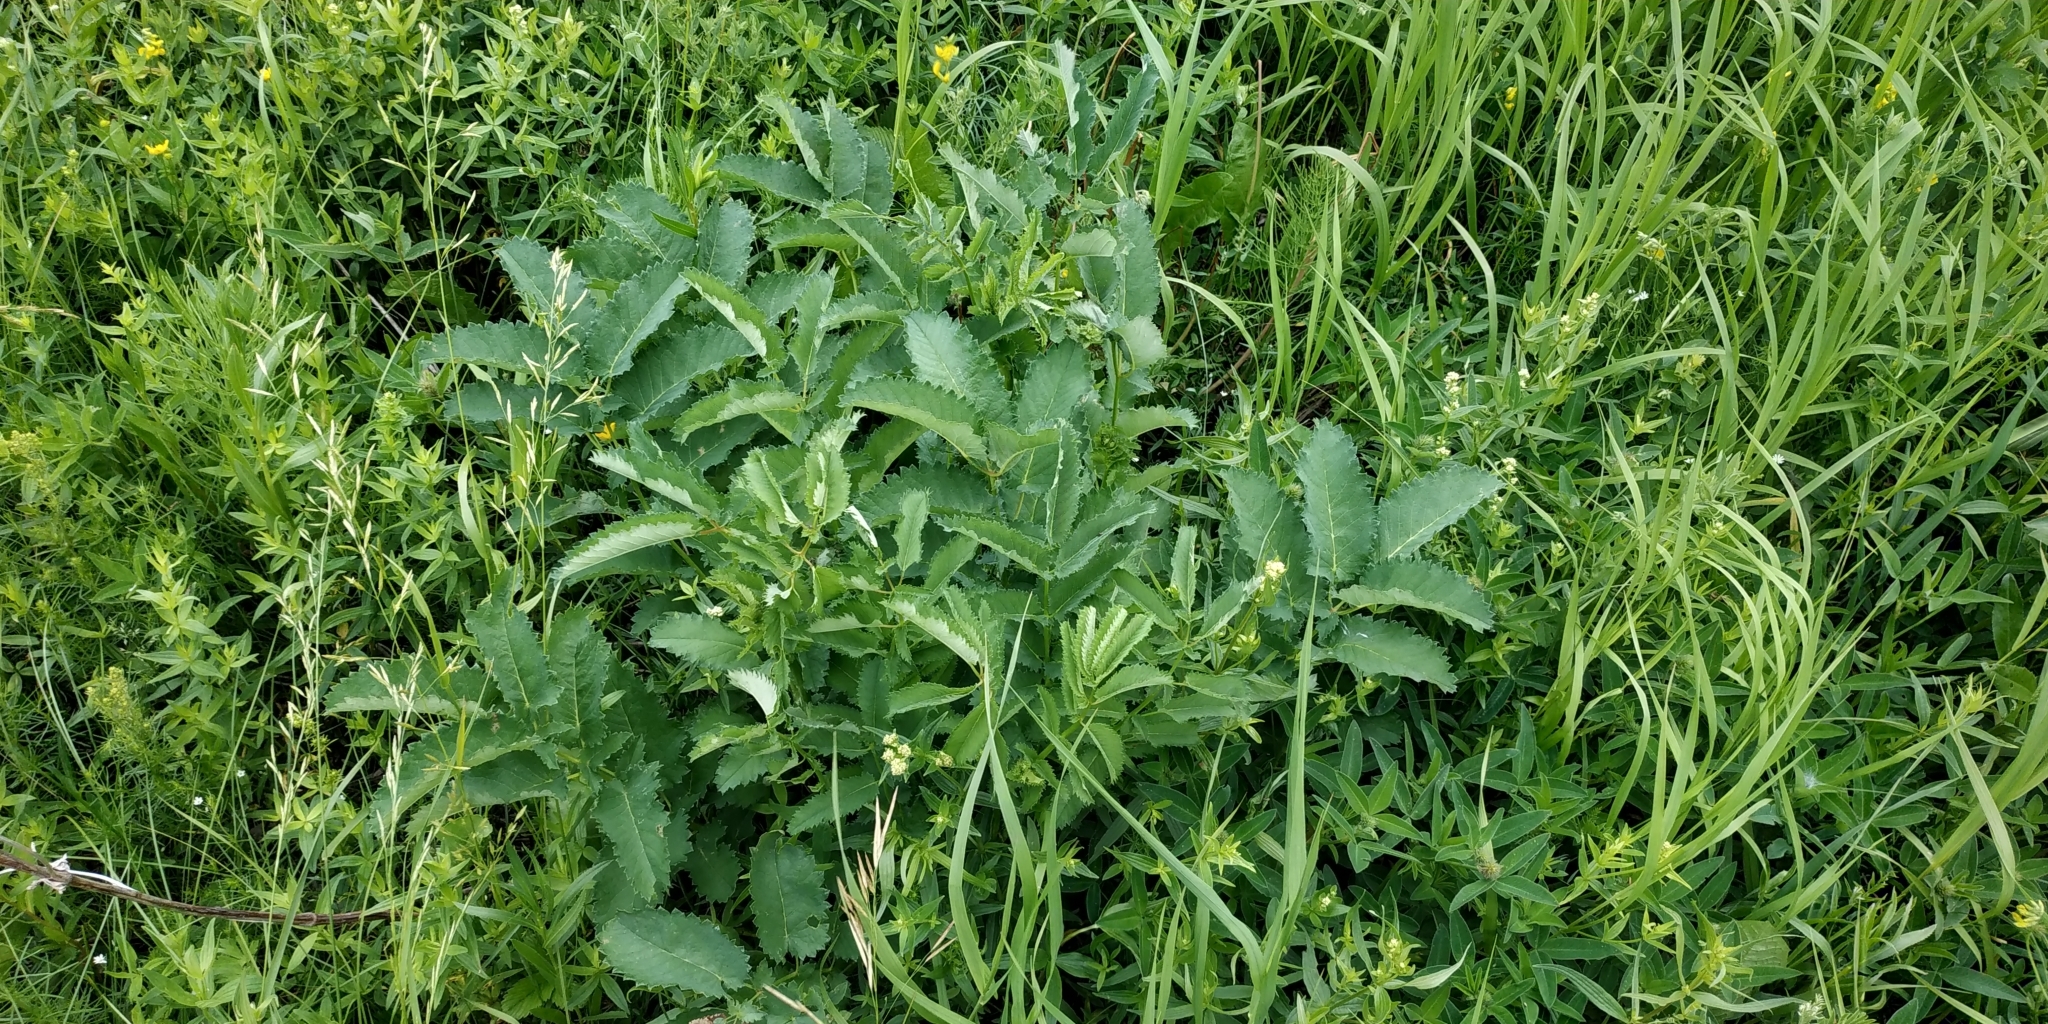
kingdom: Plantae
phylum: Tracheophyta
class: Magnoliopsida
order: Rosales
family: Rosaceae
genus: Sanguisorba
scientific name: Sanguisorba officinalis
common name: Great burnet
